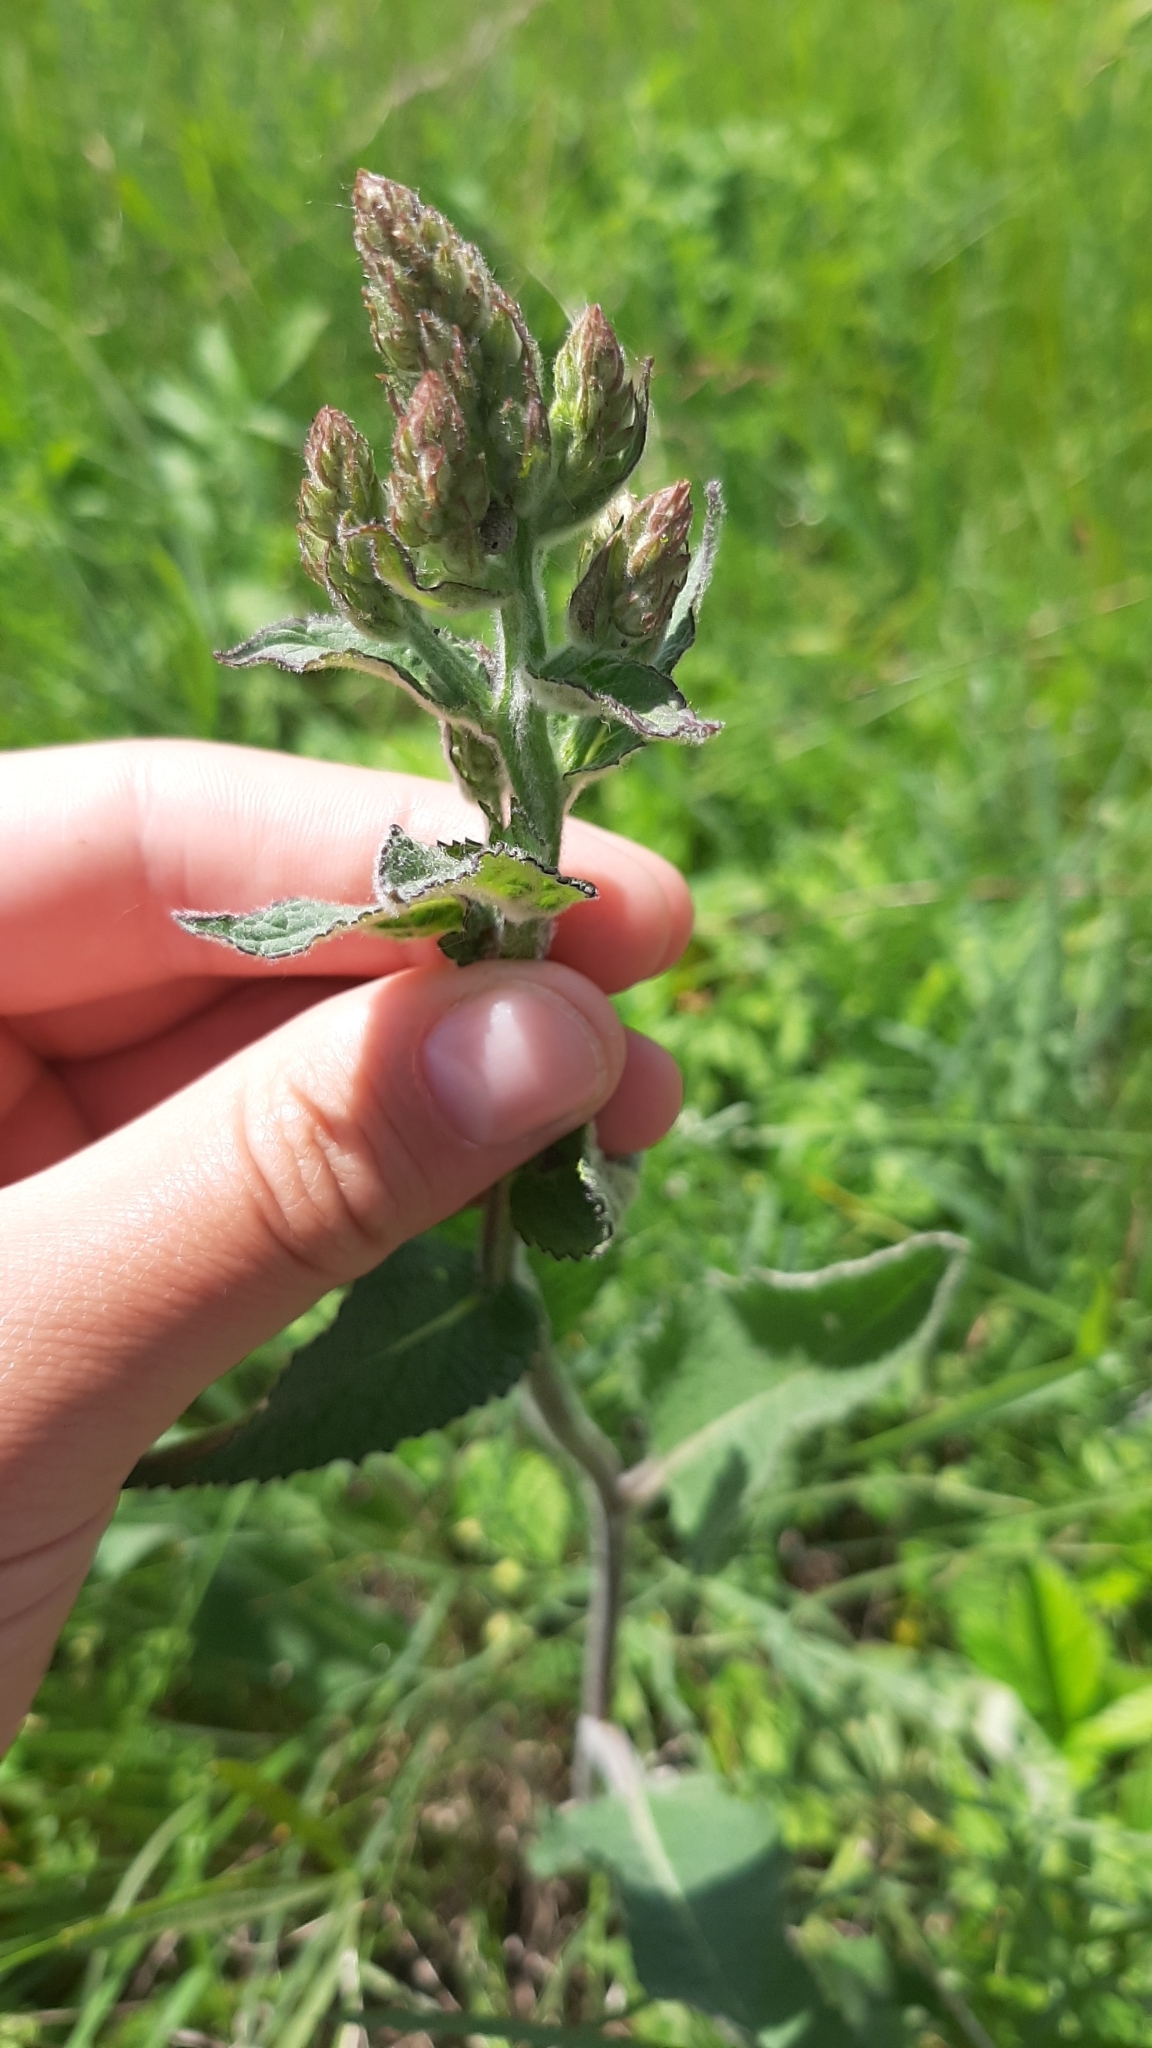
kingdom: Plantae
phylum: Tracheophyta
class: Magnoliopsida
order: Lamiales
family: Lamiaceae
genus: Salvia
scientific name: Salvia nemorosa
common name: Balkan clary
